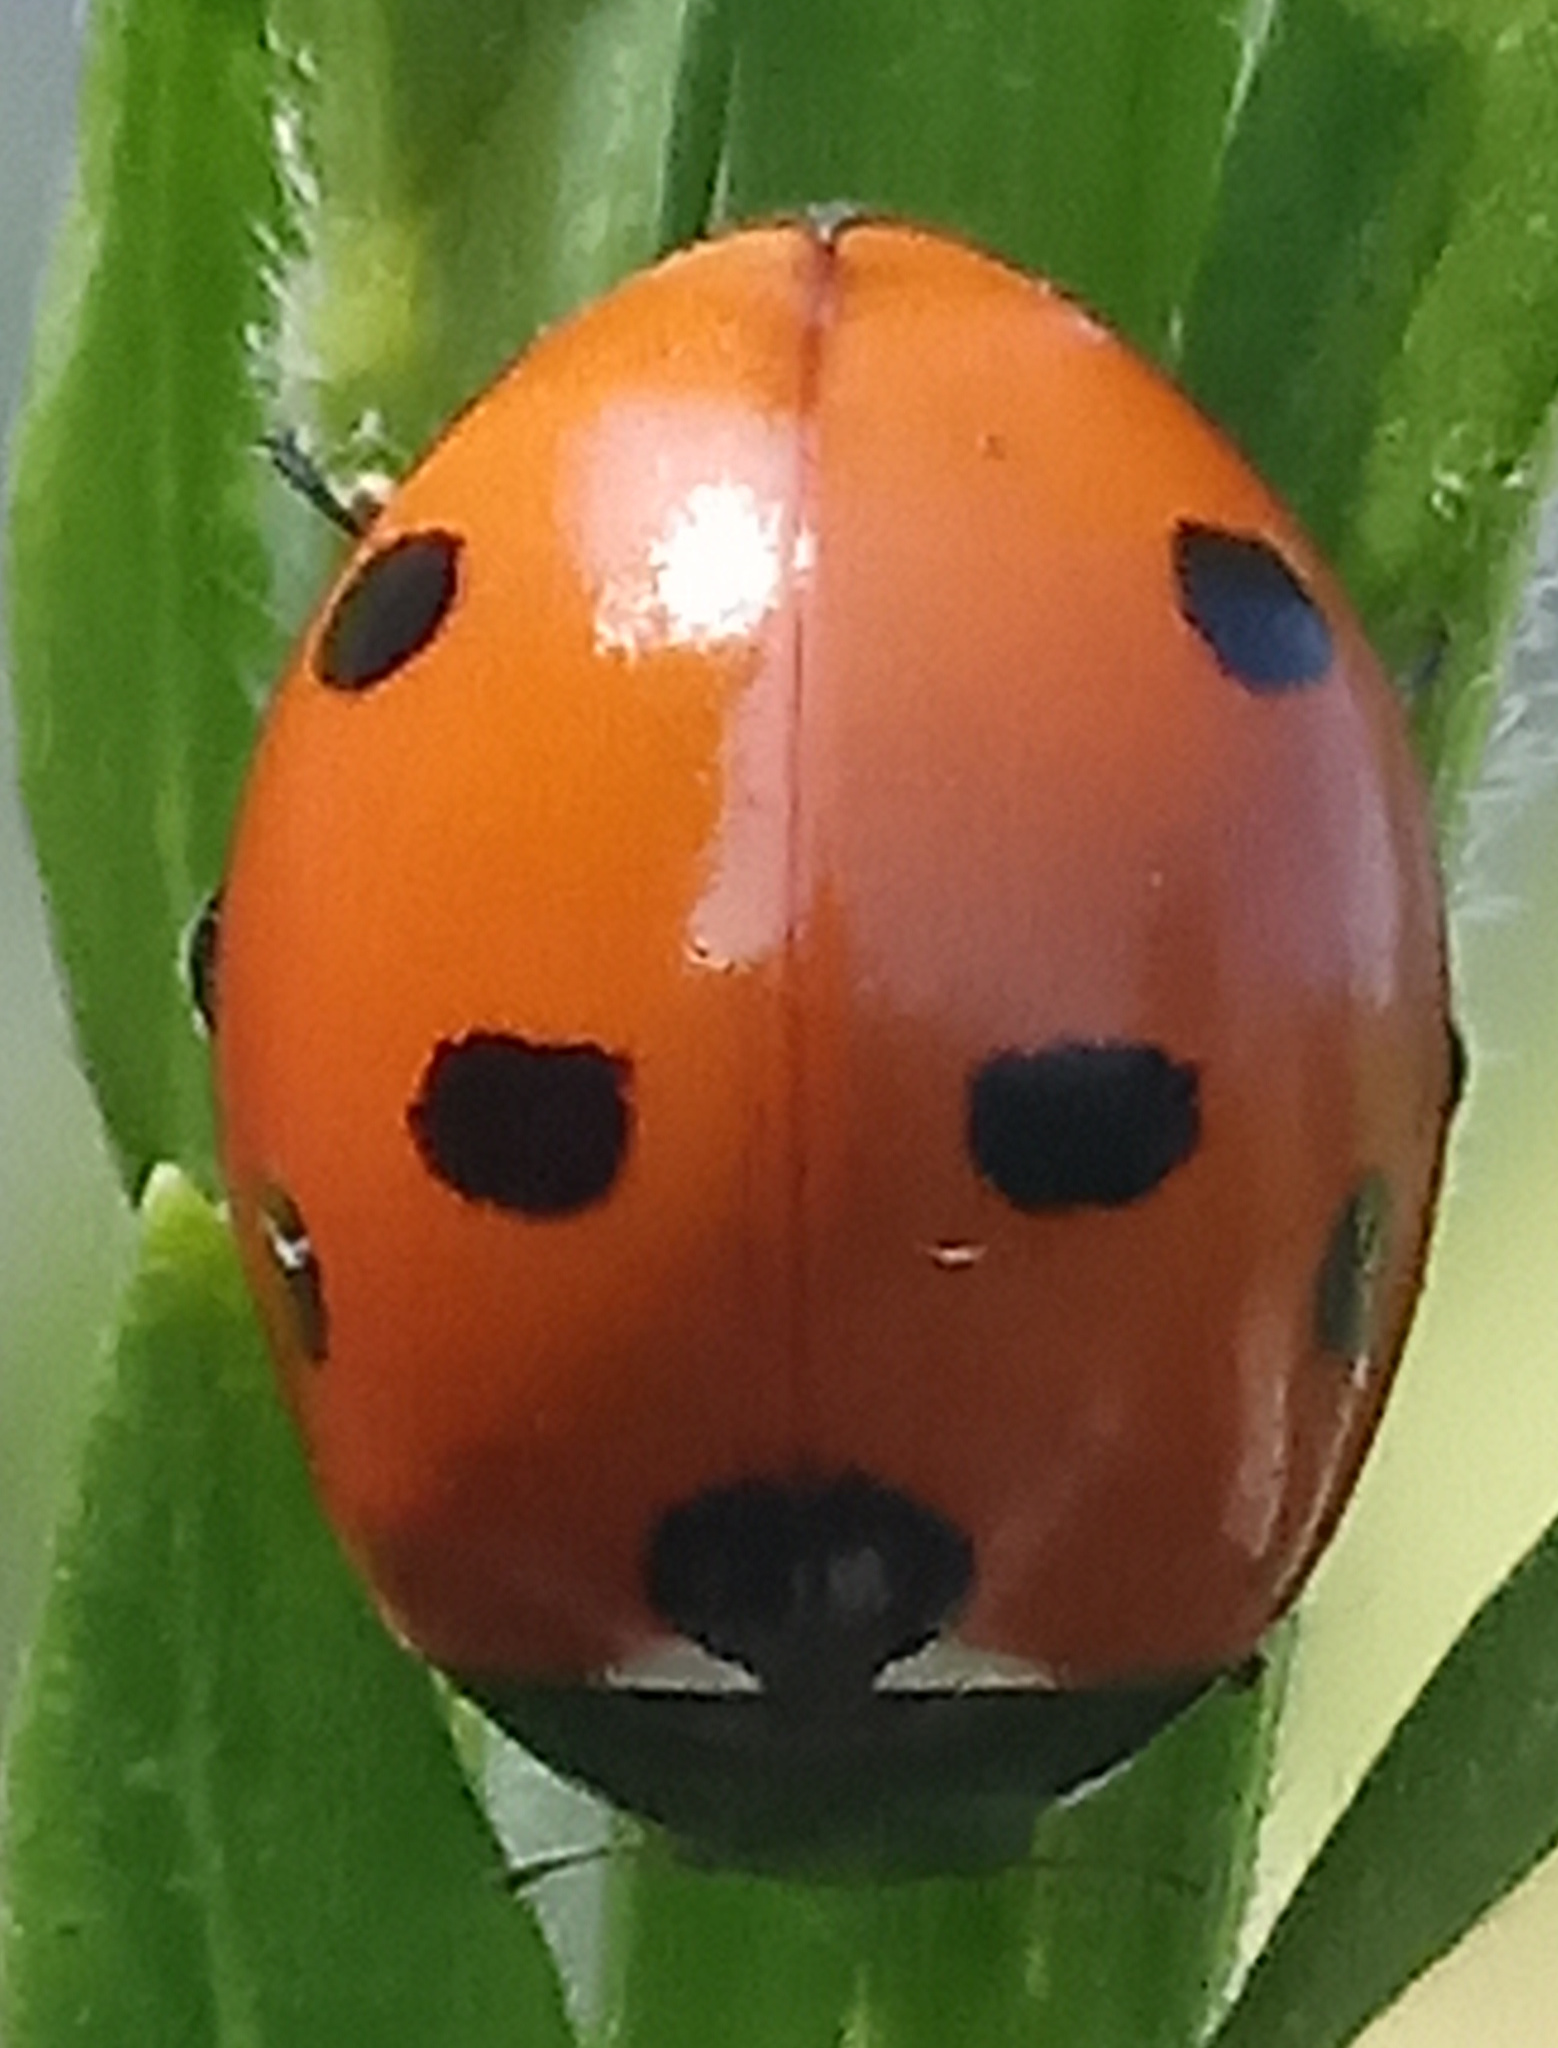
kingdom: Animalia
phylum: Arthropoda
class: Insecta
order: Coleoptera
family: Coccinellidae
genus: Coccinella
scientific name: Coccinella septempunctata
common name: Sevenspotted lady beetle
